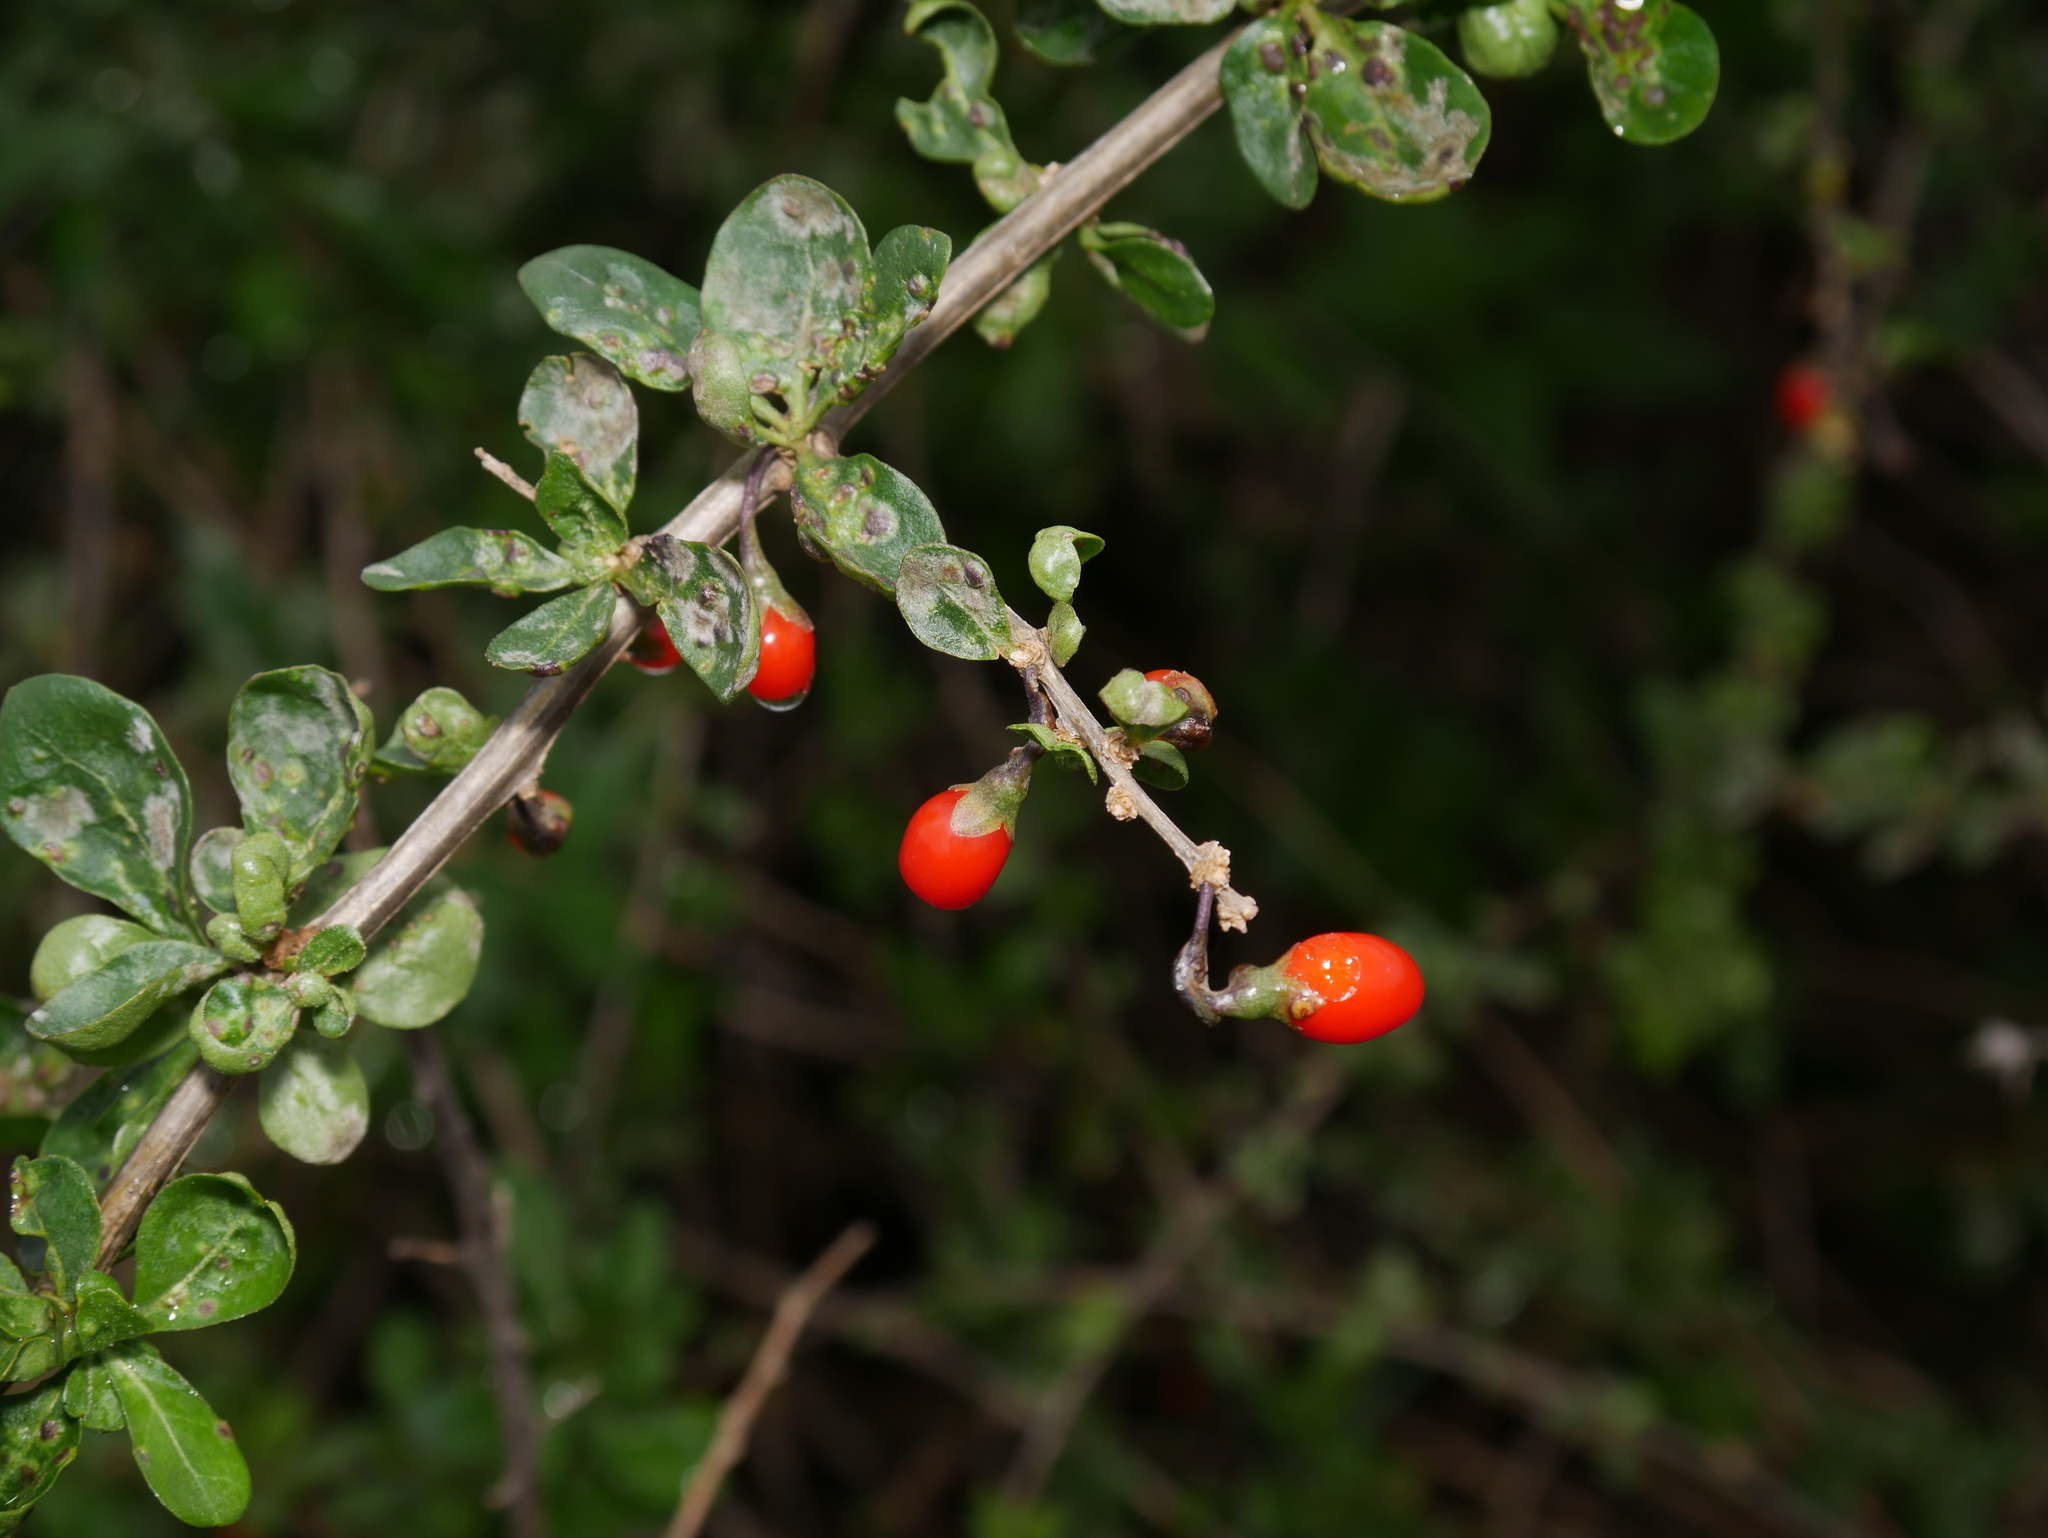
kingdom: Plantae
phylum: Tracheophyta
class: Magnoliopsida
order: Solanales
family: Solanaceae
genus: Lycium
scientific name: Lycium barbarum
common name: Duke of argyll's teaplant
